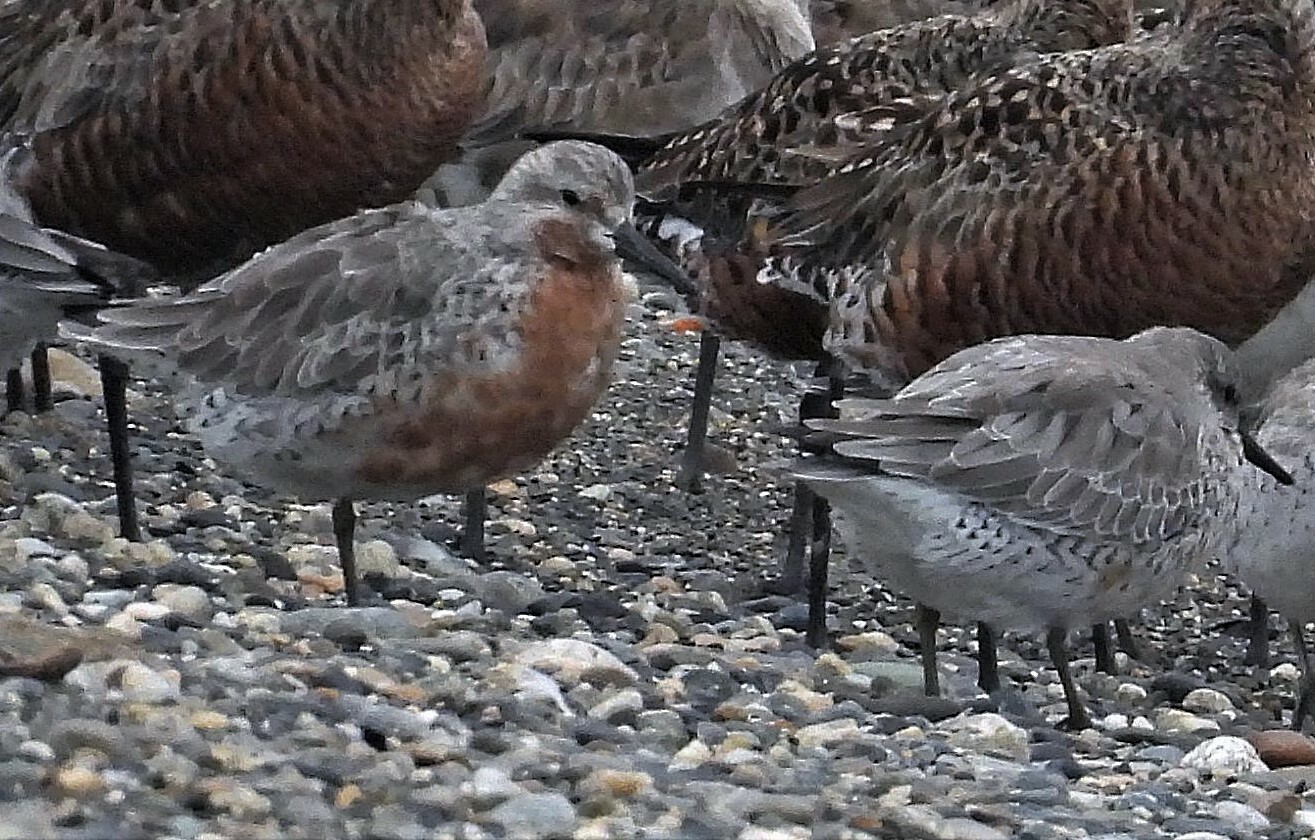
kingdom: Animalia
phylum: Chordata
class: Aves
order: Charadriiformes
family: Scolopacidae
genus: Calidris
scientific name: Calidris canutus
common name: Red knot
